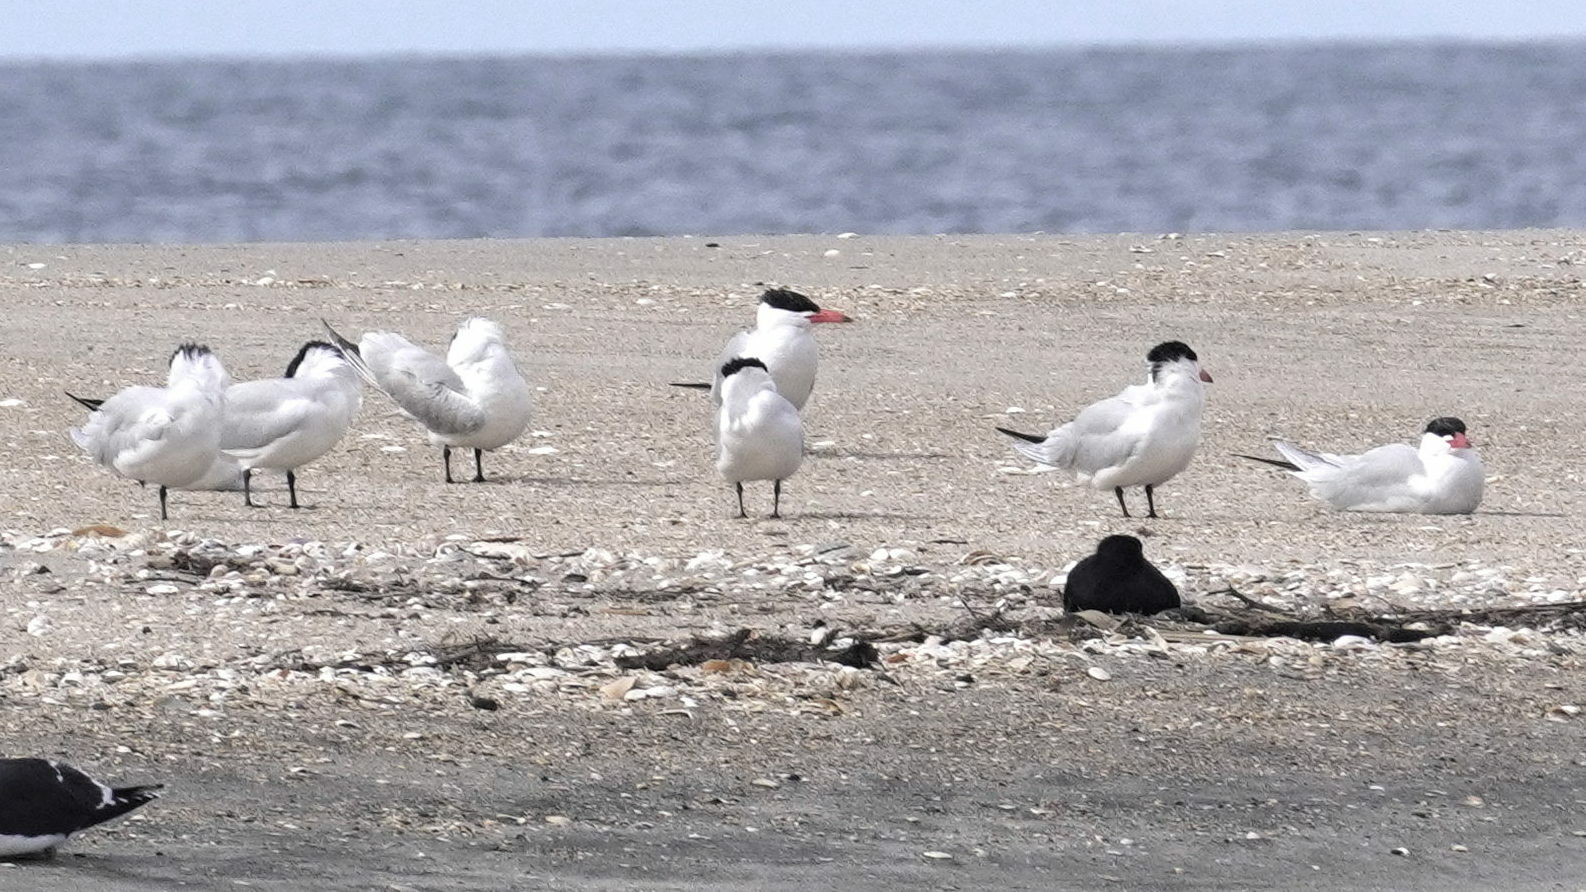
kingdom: Animalia
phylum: Chordata
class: Aves
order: Charadriiformes
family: Laridae
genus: Hydroprogne
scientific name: Hydroprogne caspia
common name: Caspian tern
